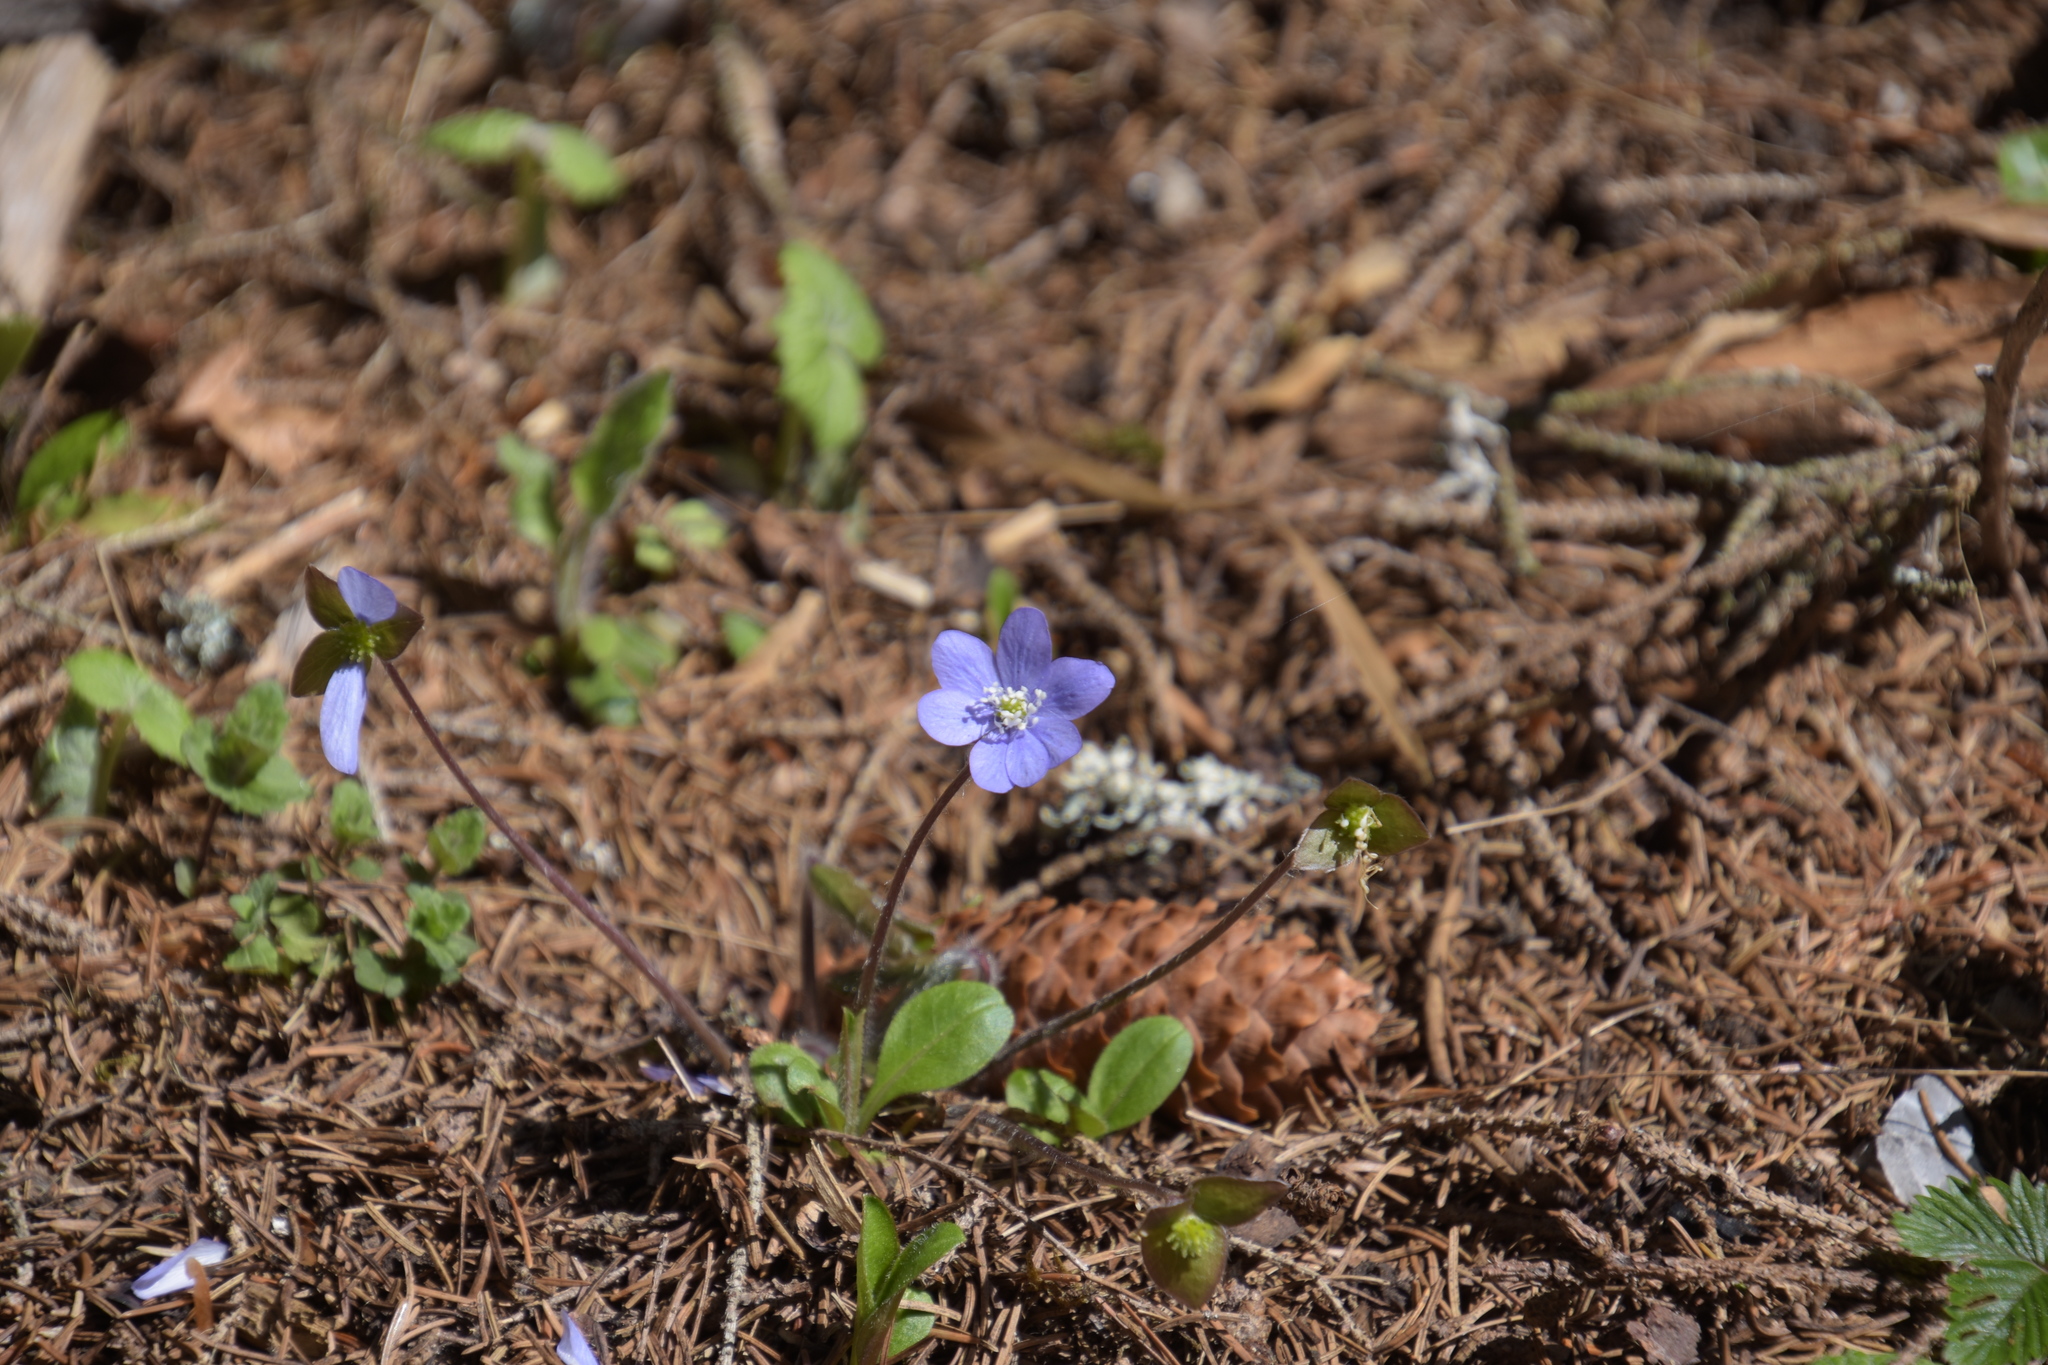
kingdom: Plantae
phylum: Tracheophyta
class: Magnoliopsida
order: Ranunculales
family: Ranunculaceae
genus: Hepatica
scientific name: Hepatica nobilis
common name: Liverleaf
